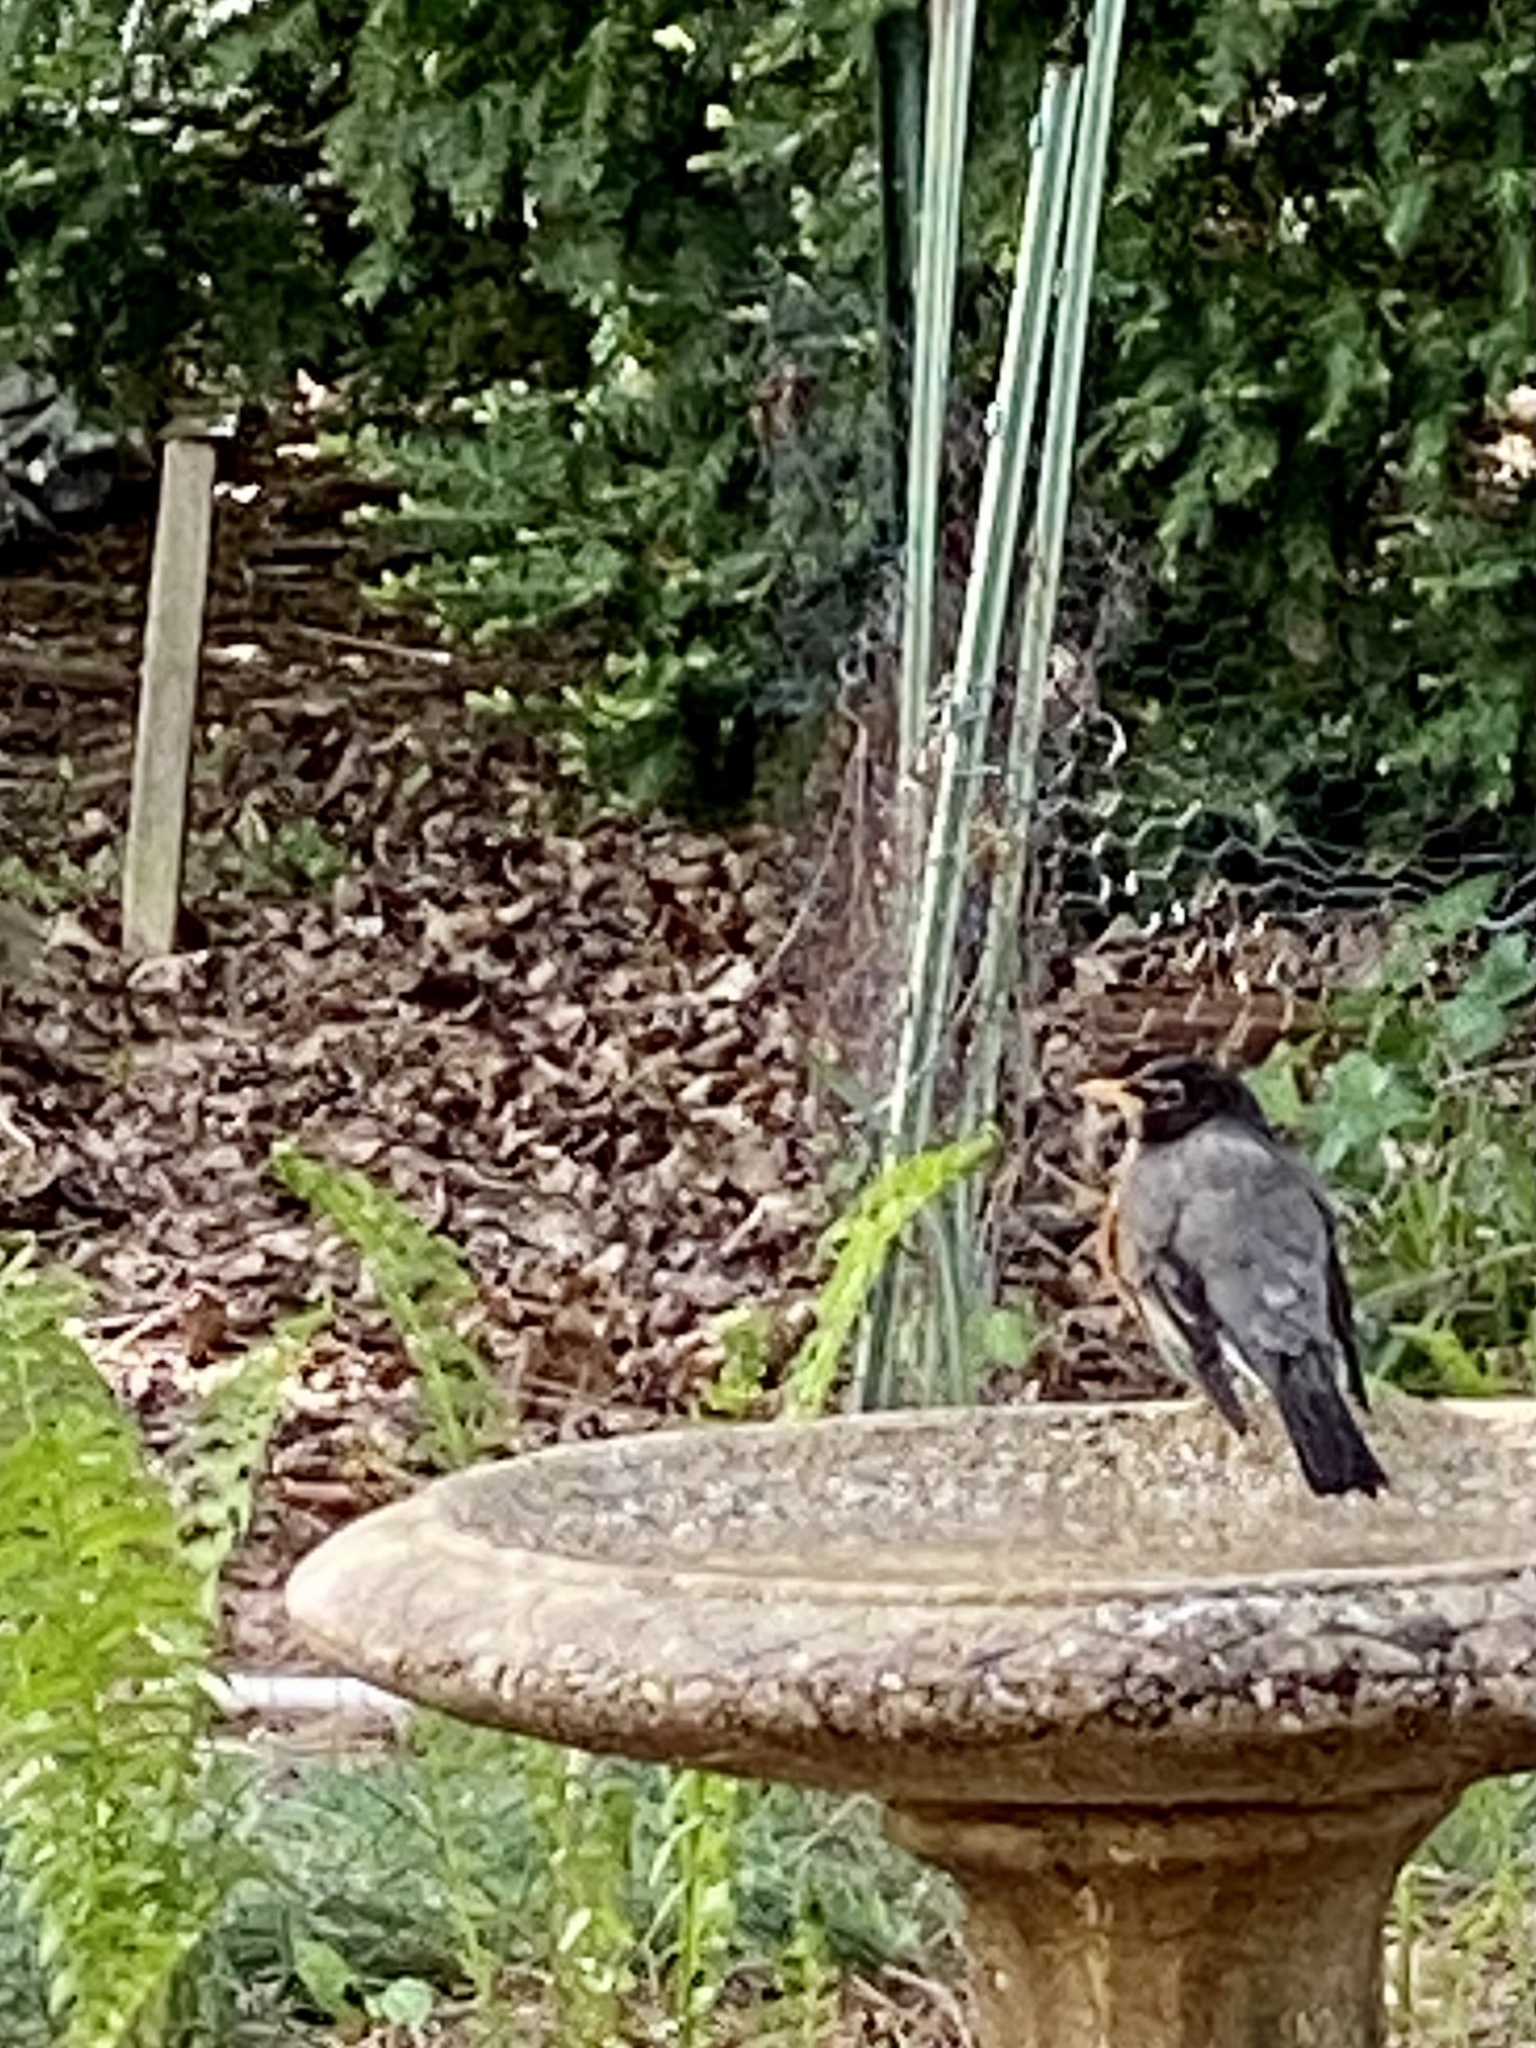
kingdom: Animalia
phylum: Chordata
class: Aves
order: Passeriformes
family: Turdidae
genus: Turdus
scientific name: Turdus migratorius
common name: American robin
